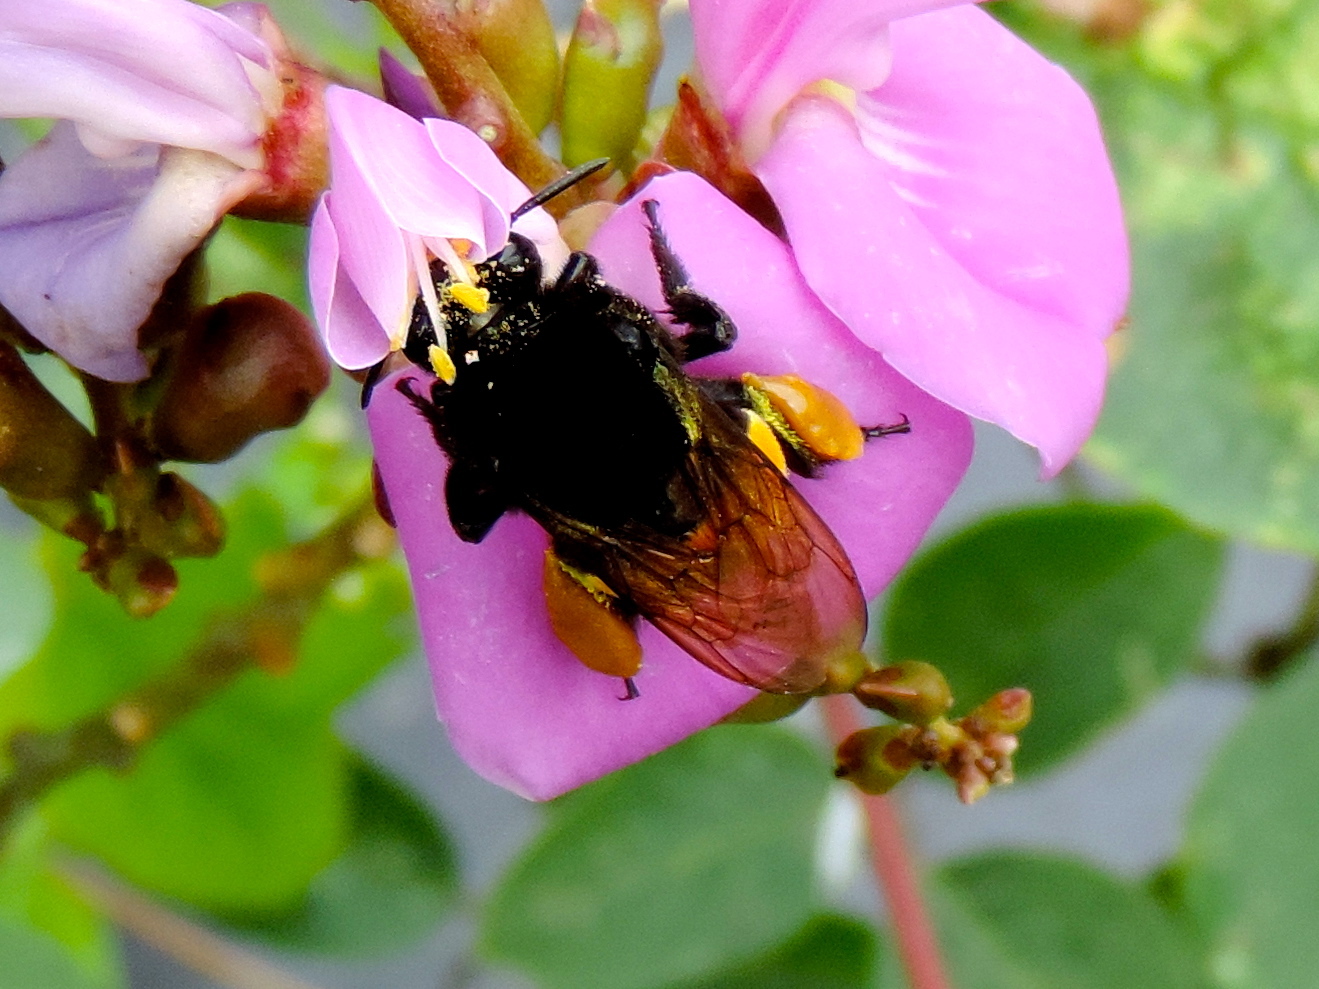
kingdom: Animalia
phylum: Arthropoda
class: Insecta
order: Hymenoptera
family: Apidae
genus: Eulaema
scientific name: Eulaema polychroma
